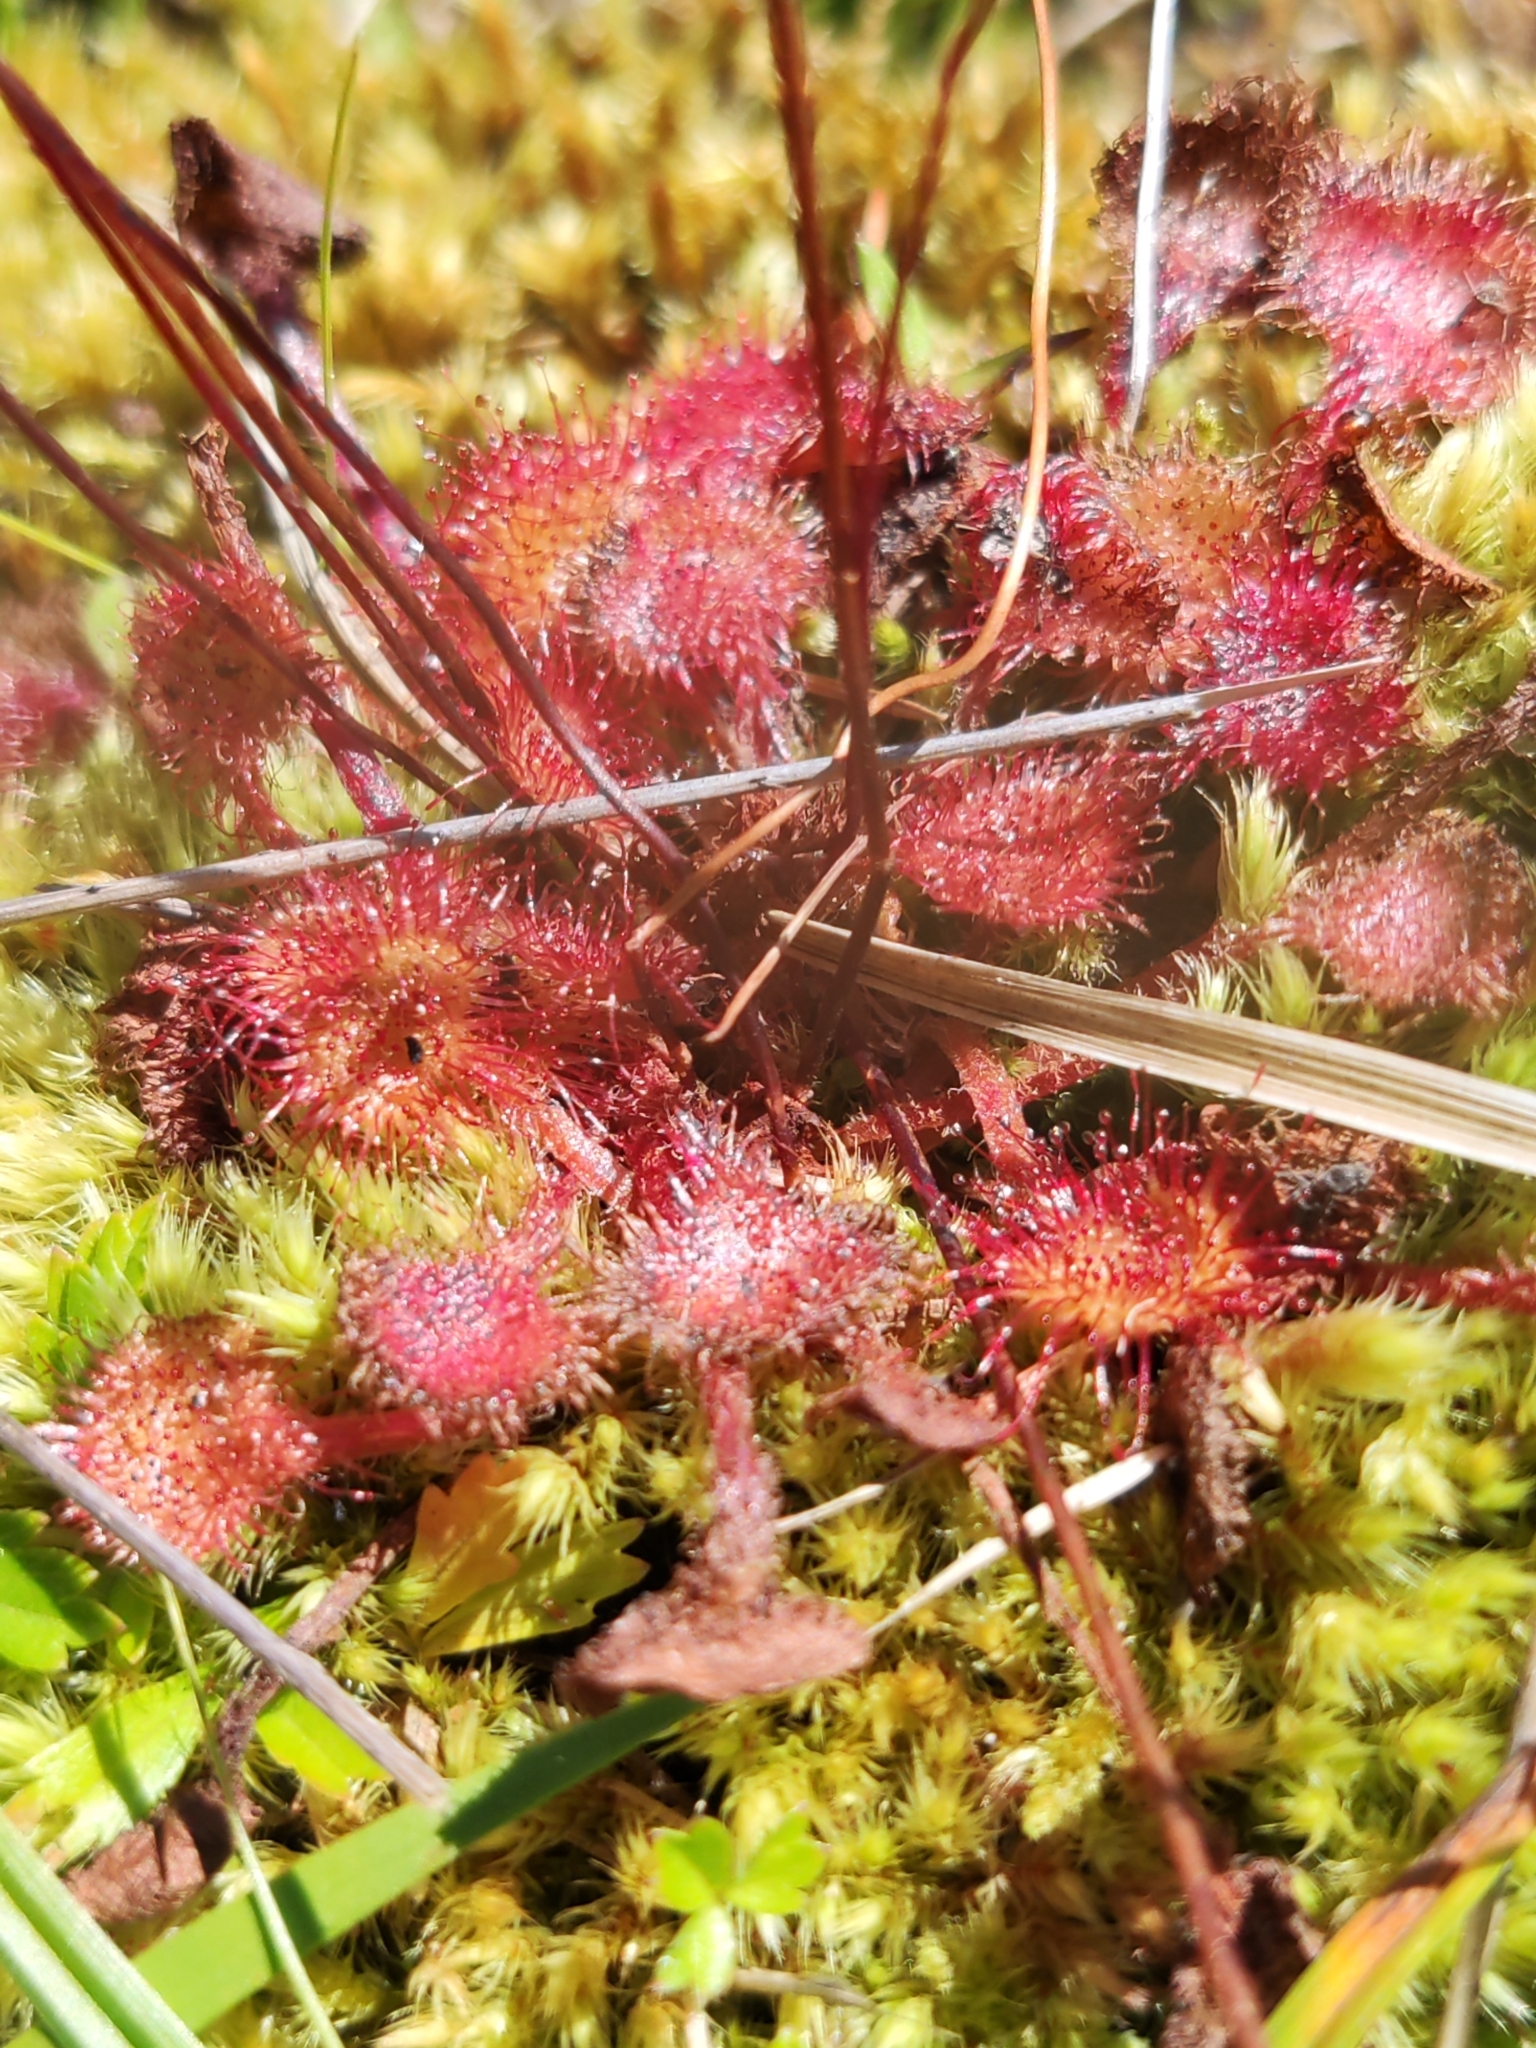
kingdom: Plantae
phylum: Tracheophyta
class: Magnoliopsida
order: Caryophyllales
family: Droseraceae
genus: Drosera
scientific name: Drosera rotundifolia
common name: Round-leaved sundew
